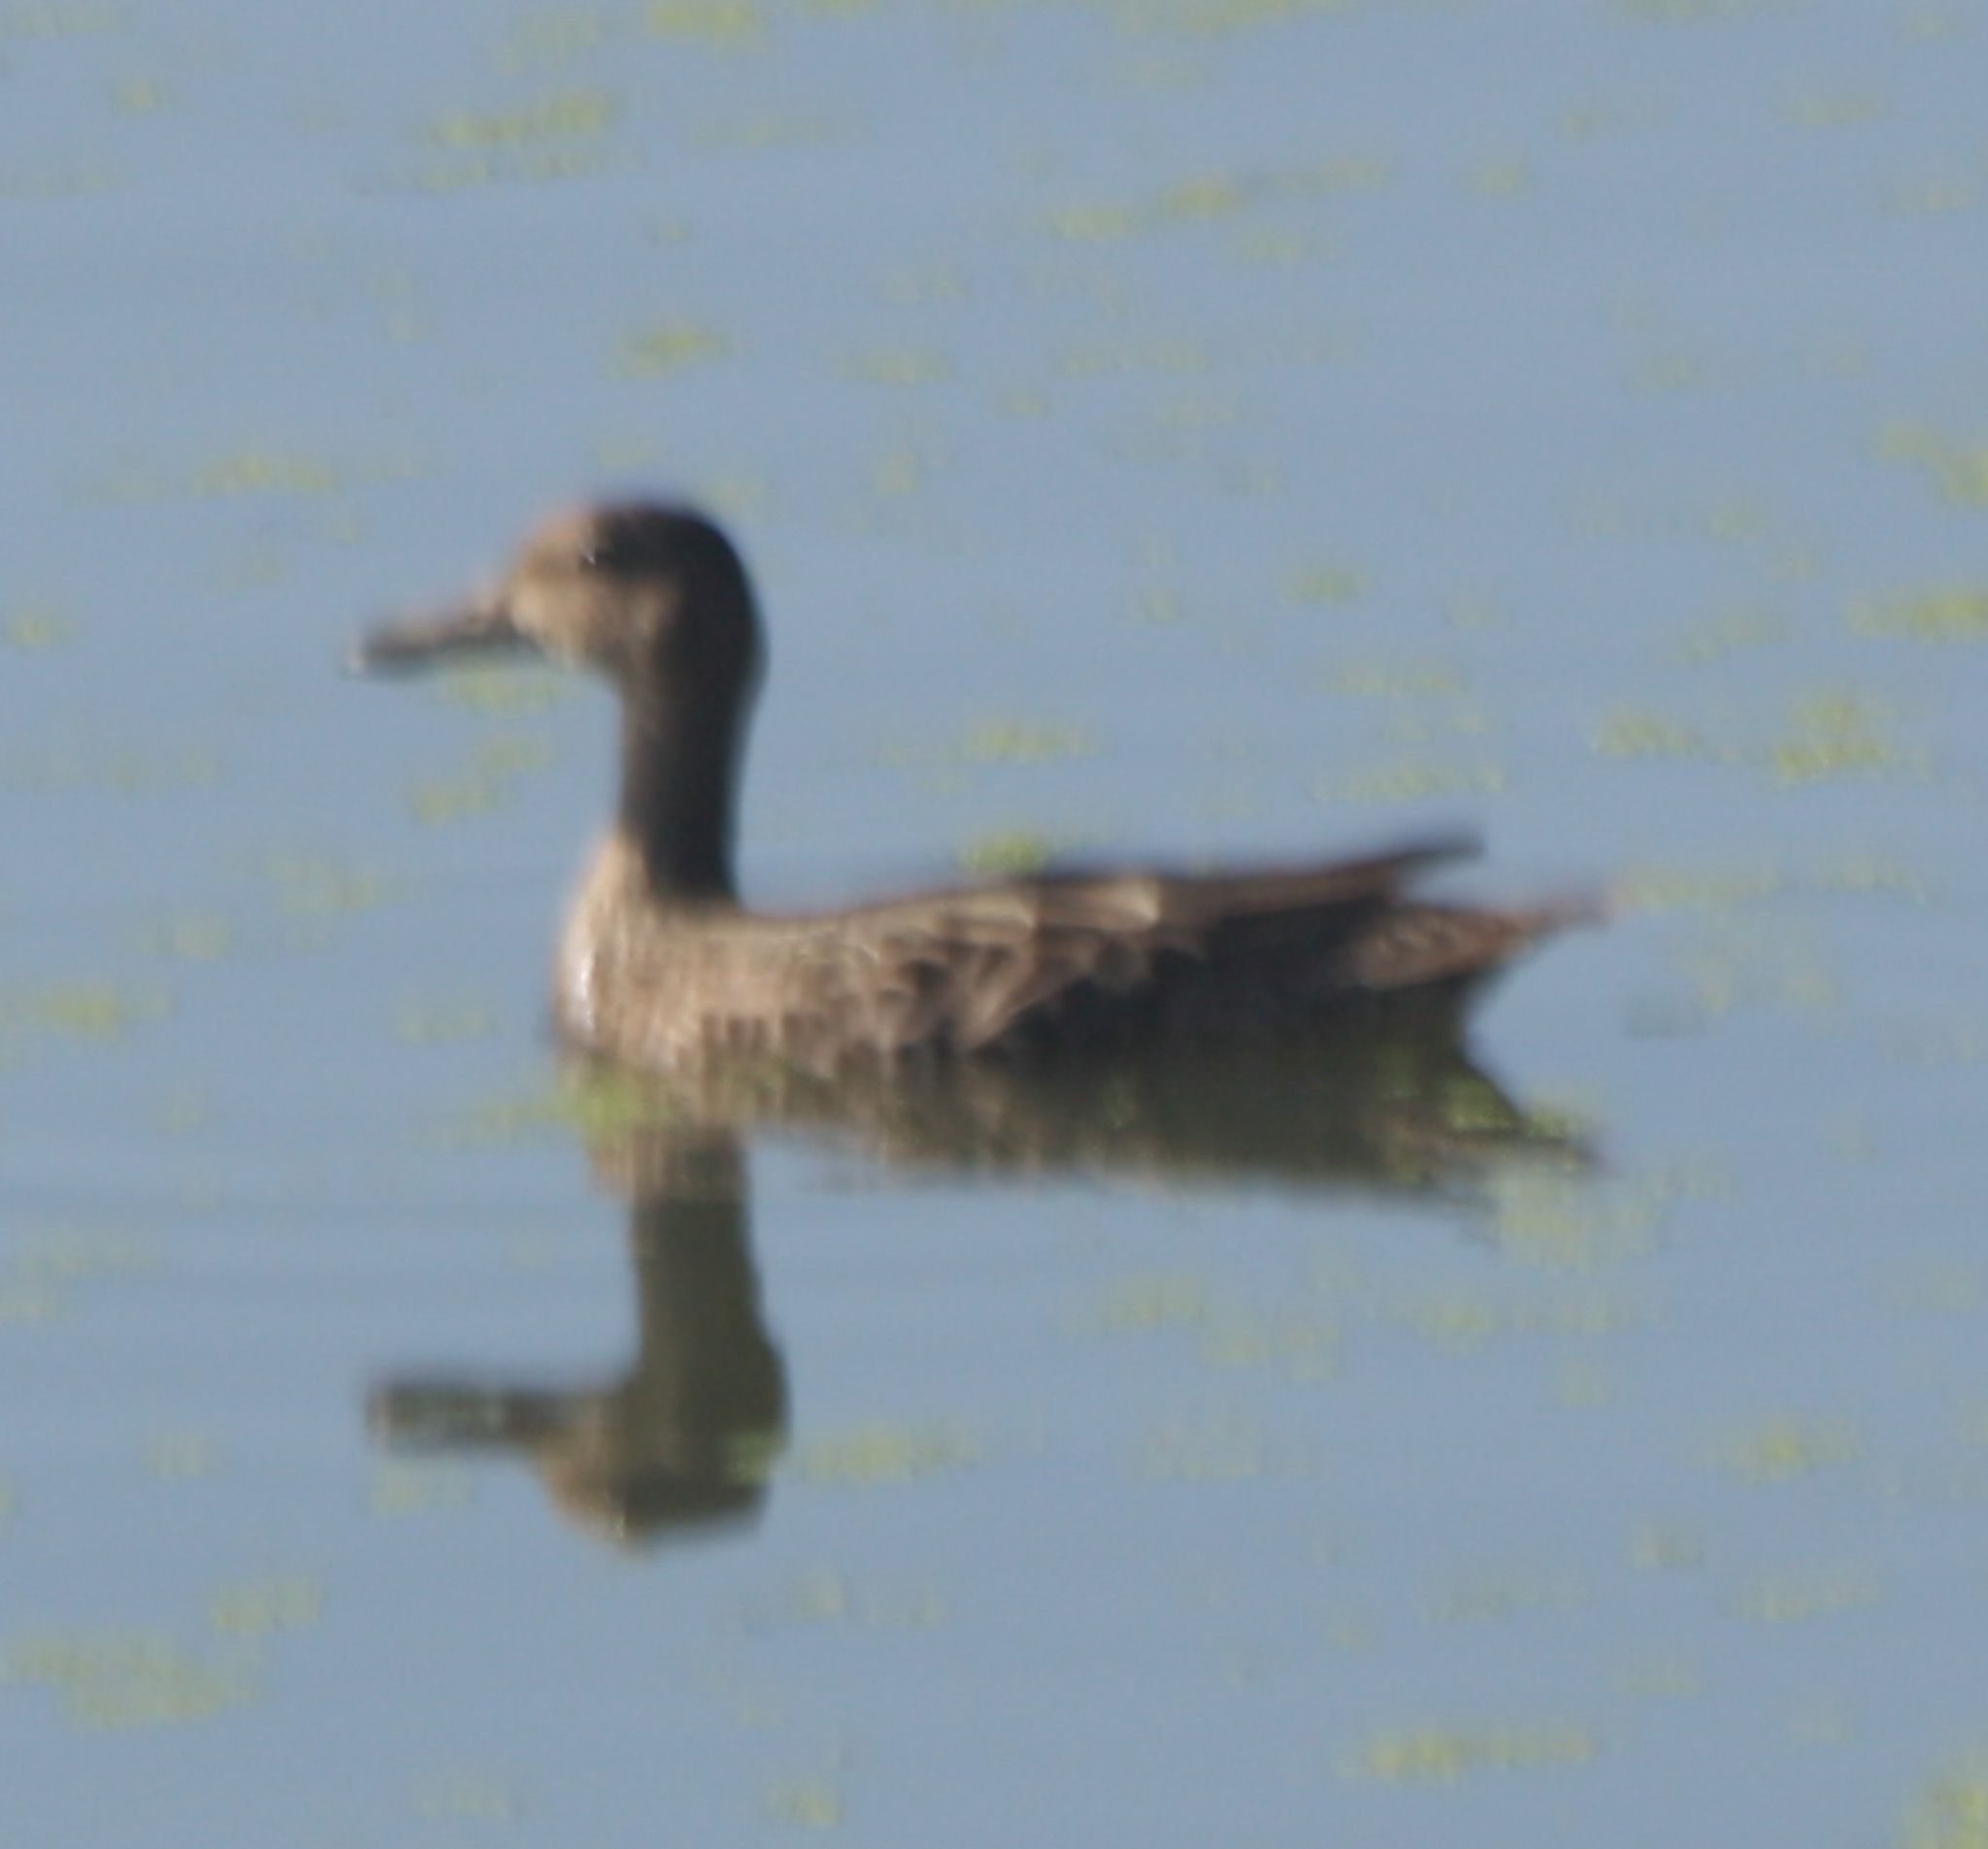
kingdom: Animalia
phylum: Chordata
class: Aves
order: Anseriformes
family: Anatidae
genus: Spatula
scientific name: Spatula discors
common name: Blue-winged teal
